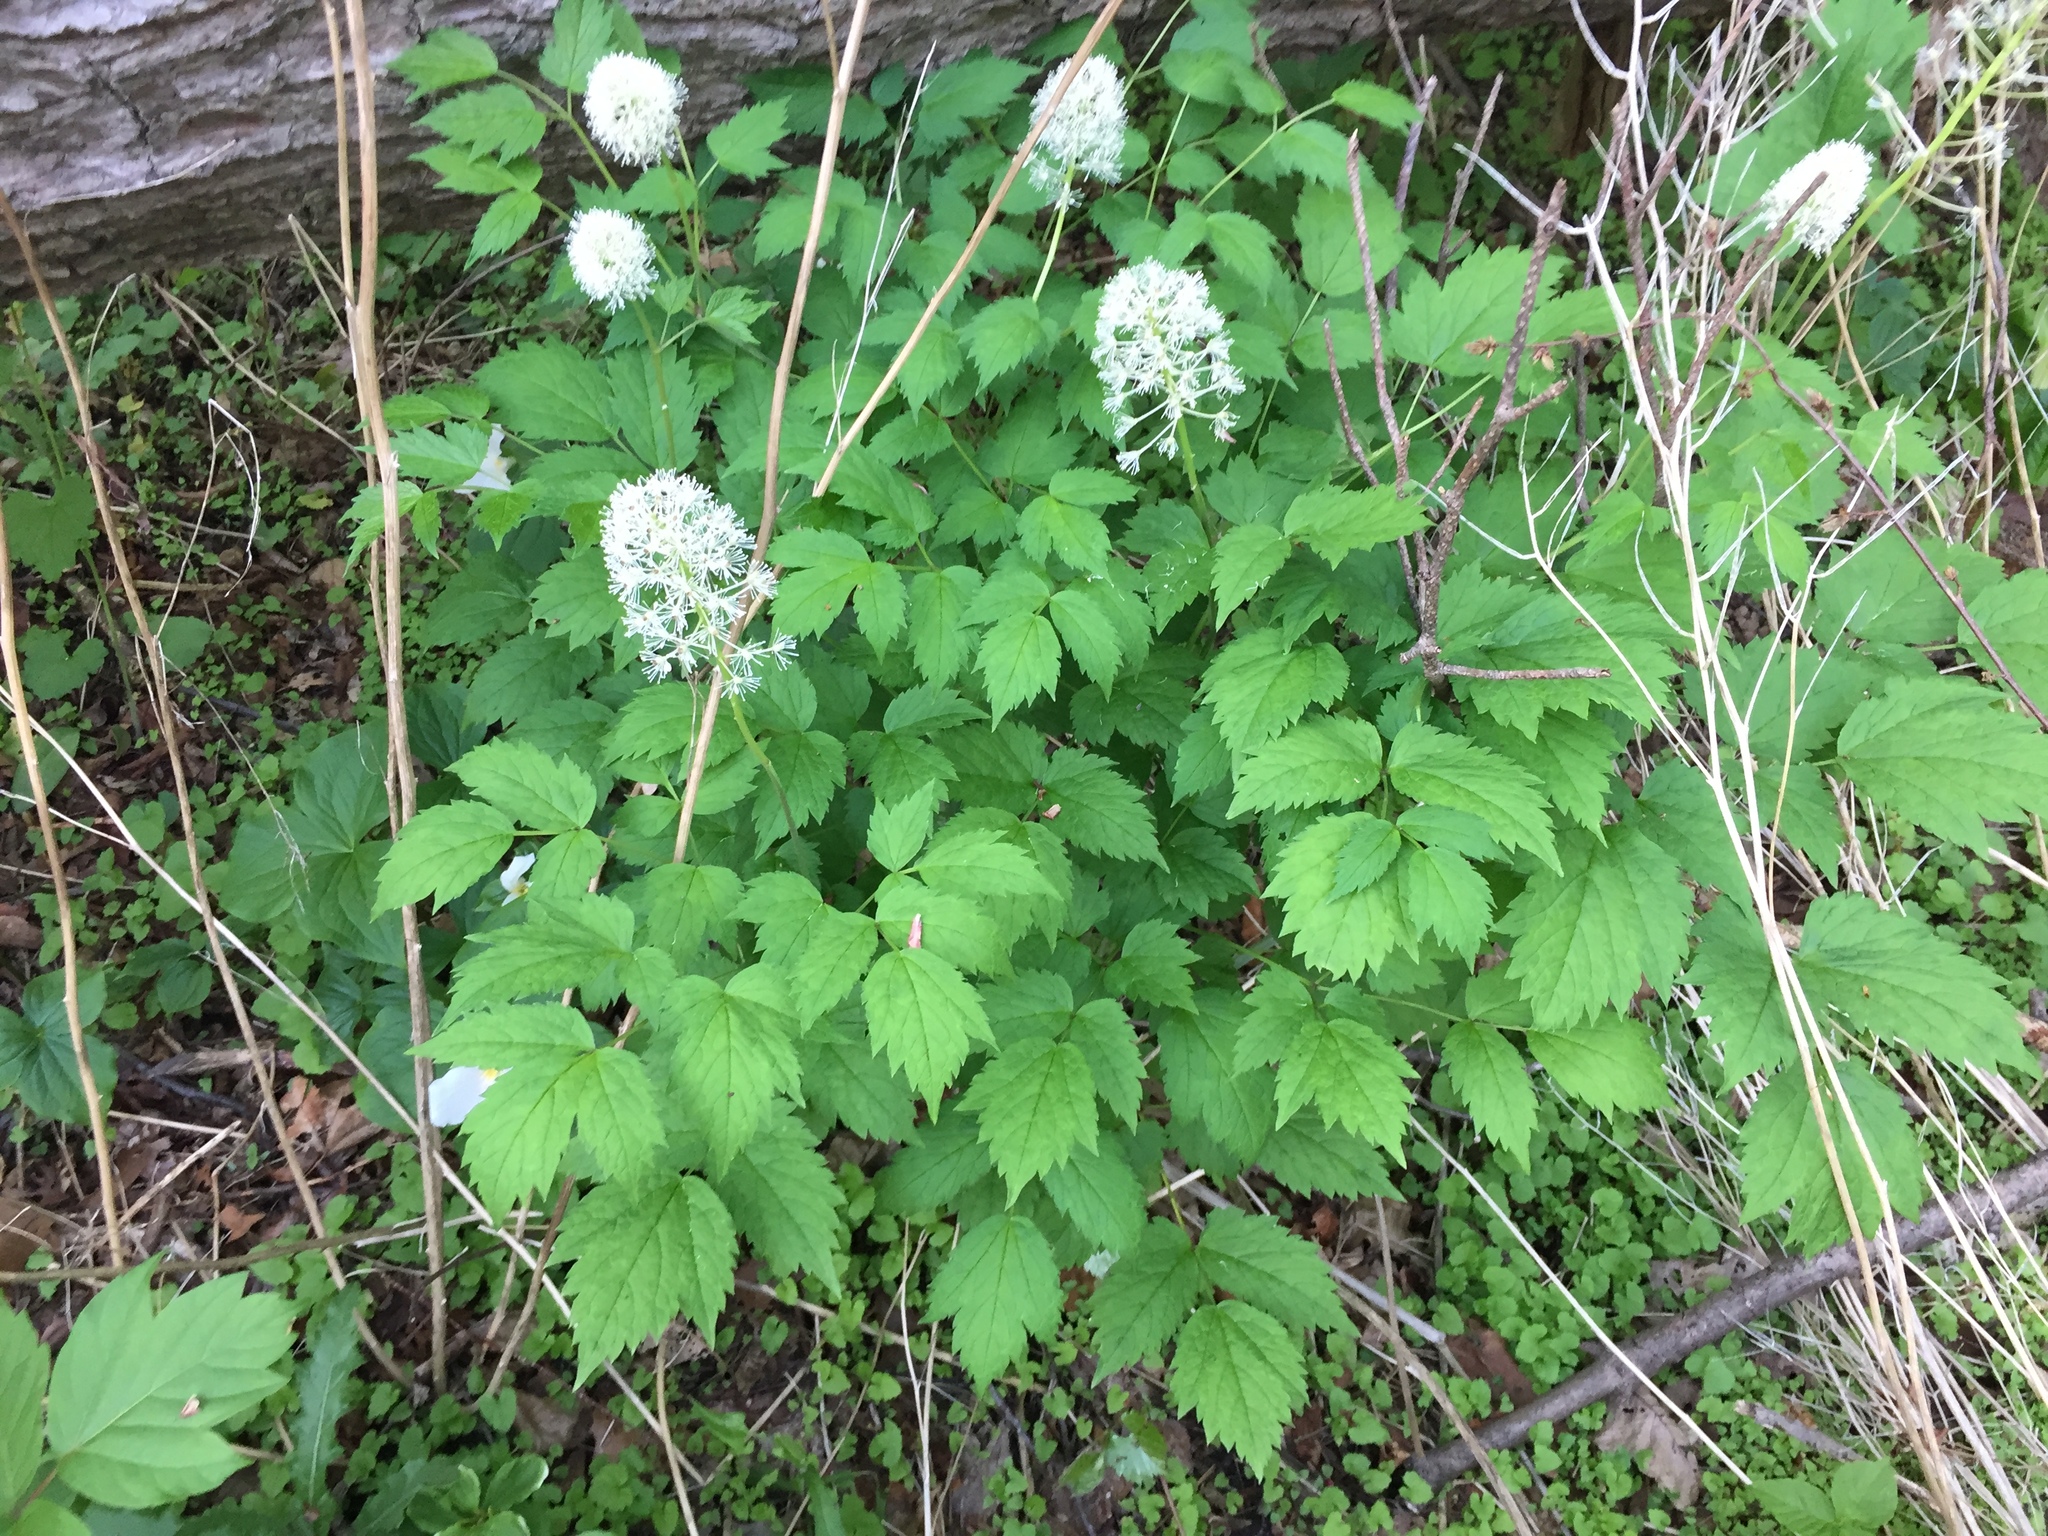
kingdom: Plantae
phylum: Tracheophyta
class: Magnoliopsida
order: Ranunculales
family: Ranunculaceae
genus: Actaea
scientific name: Actaea rubra
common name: Red baneberry
